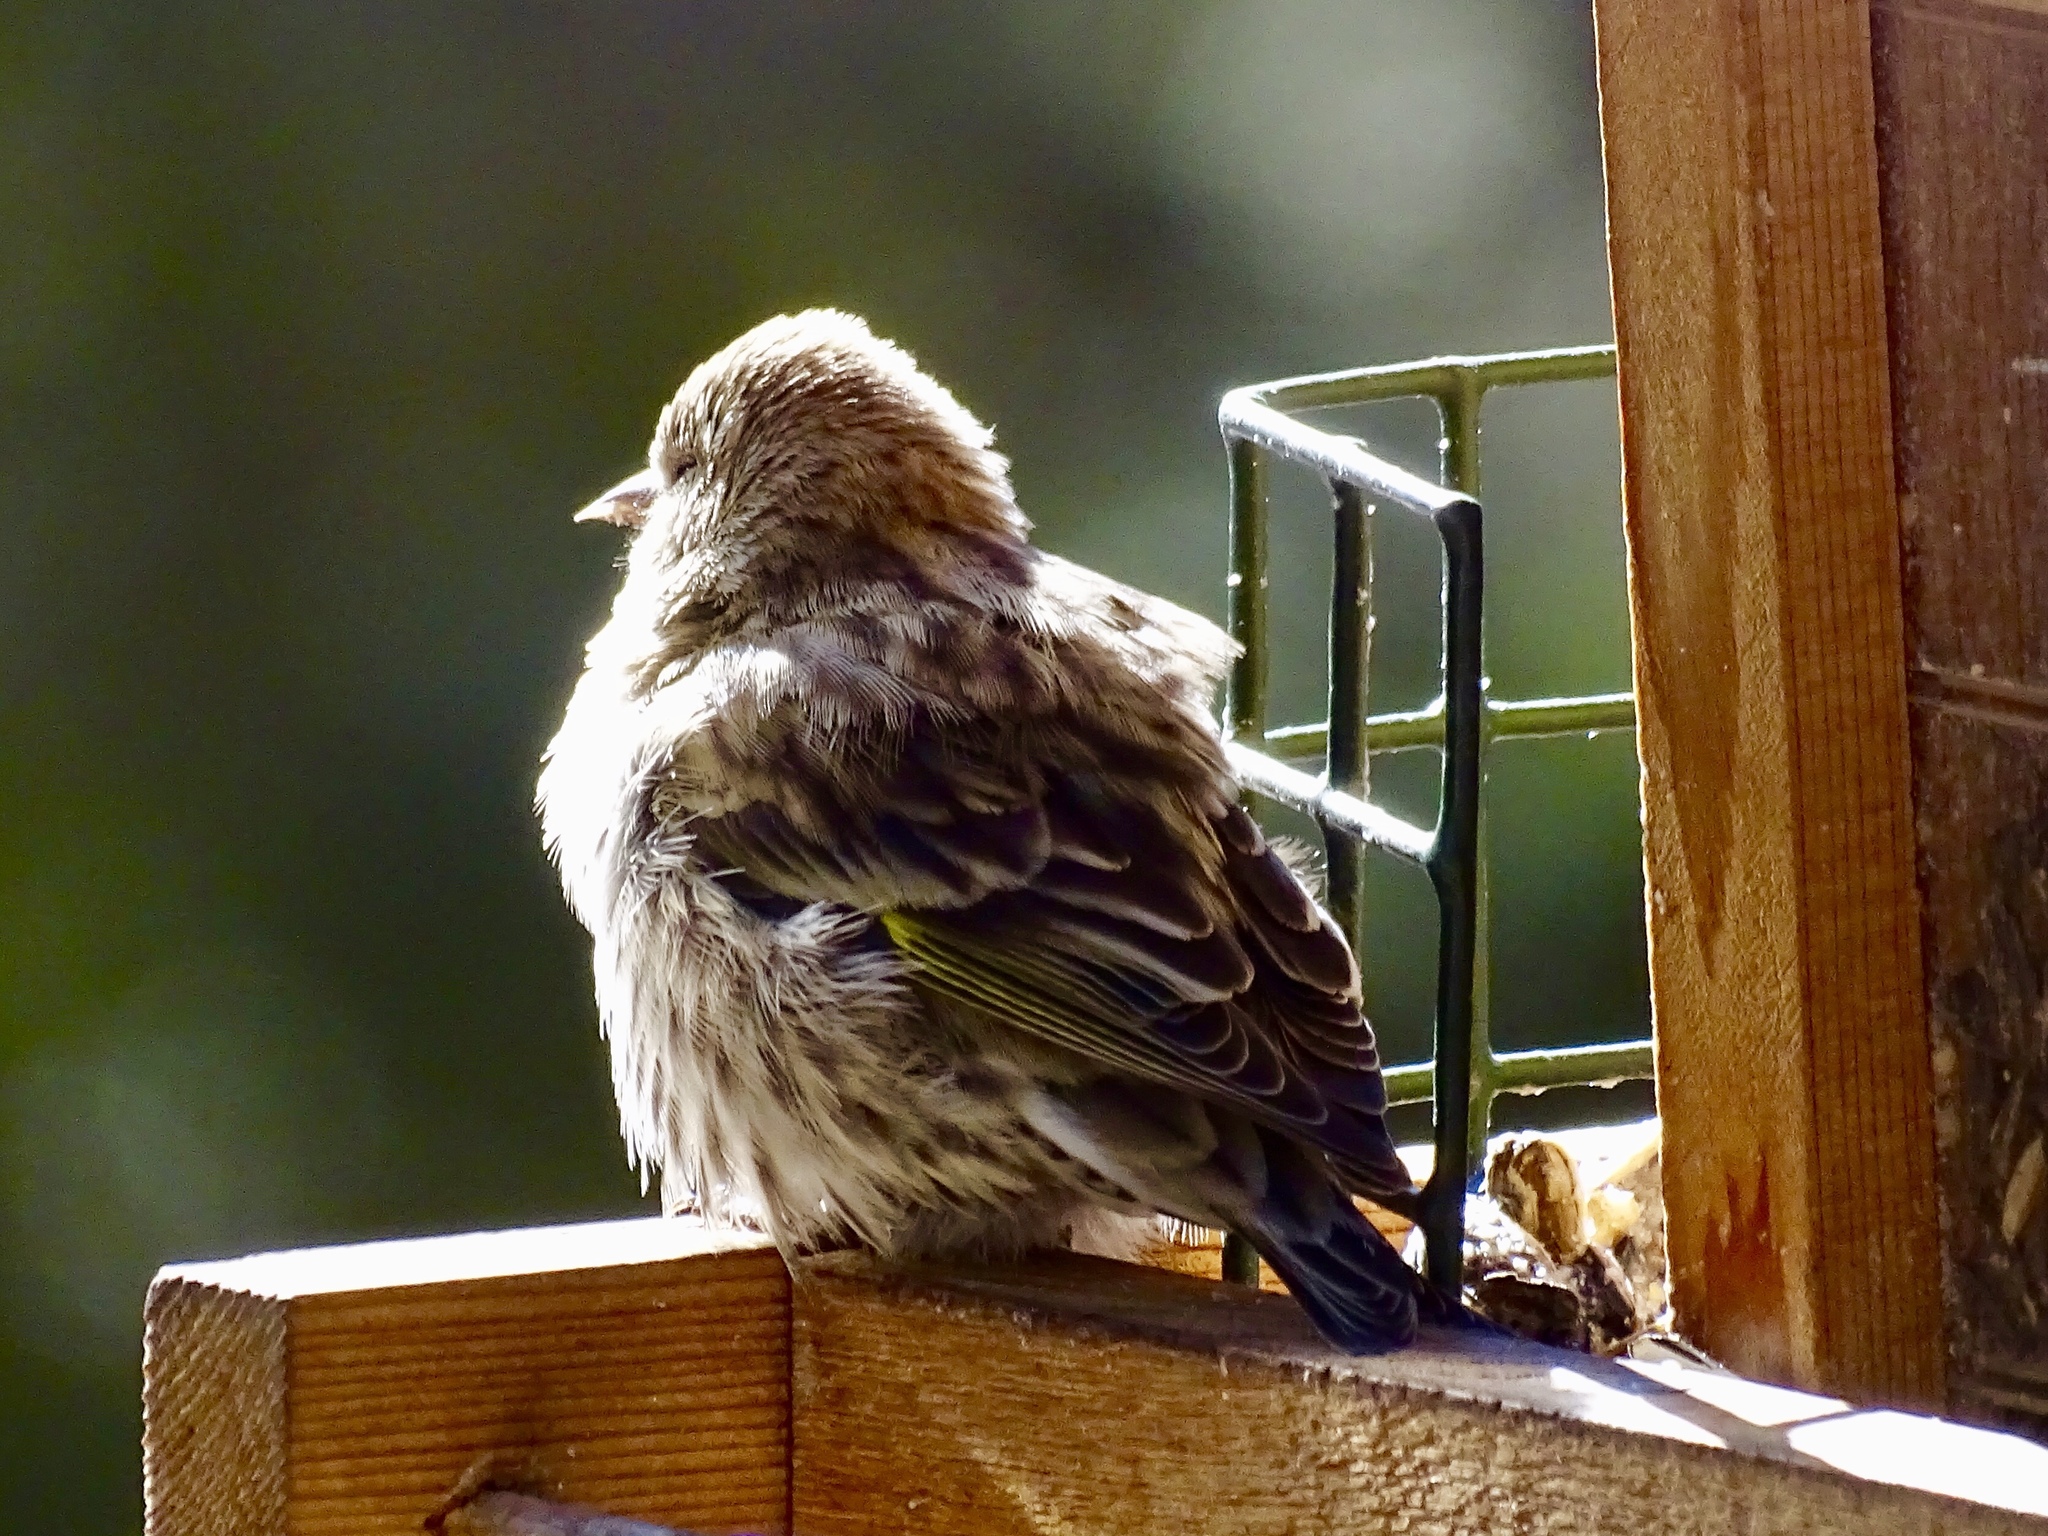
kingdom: Animalia
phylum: Chordata
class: Aves
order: Passeriformes
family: Fringillidae
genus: Spinus
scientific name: Spinus pinus
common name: Pine siskin
